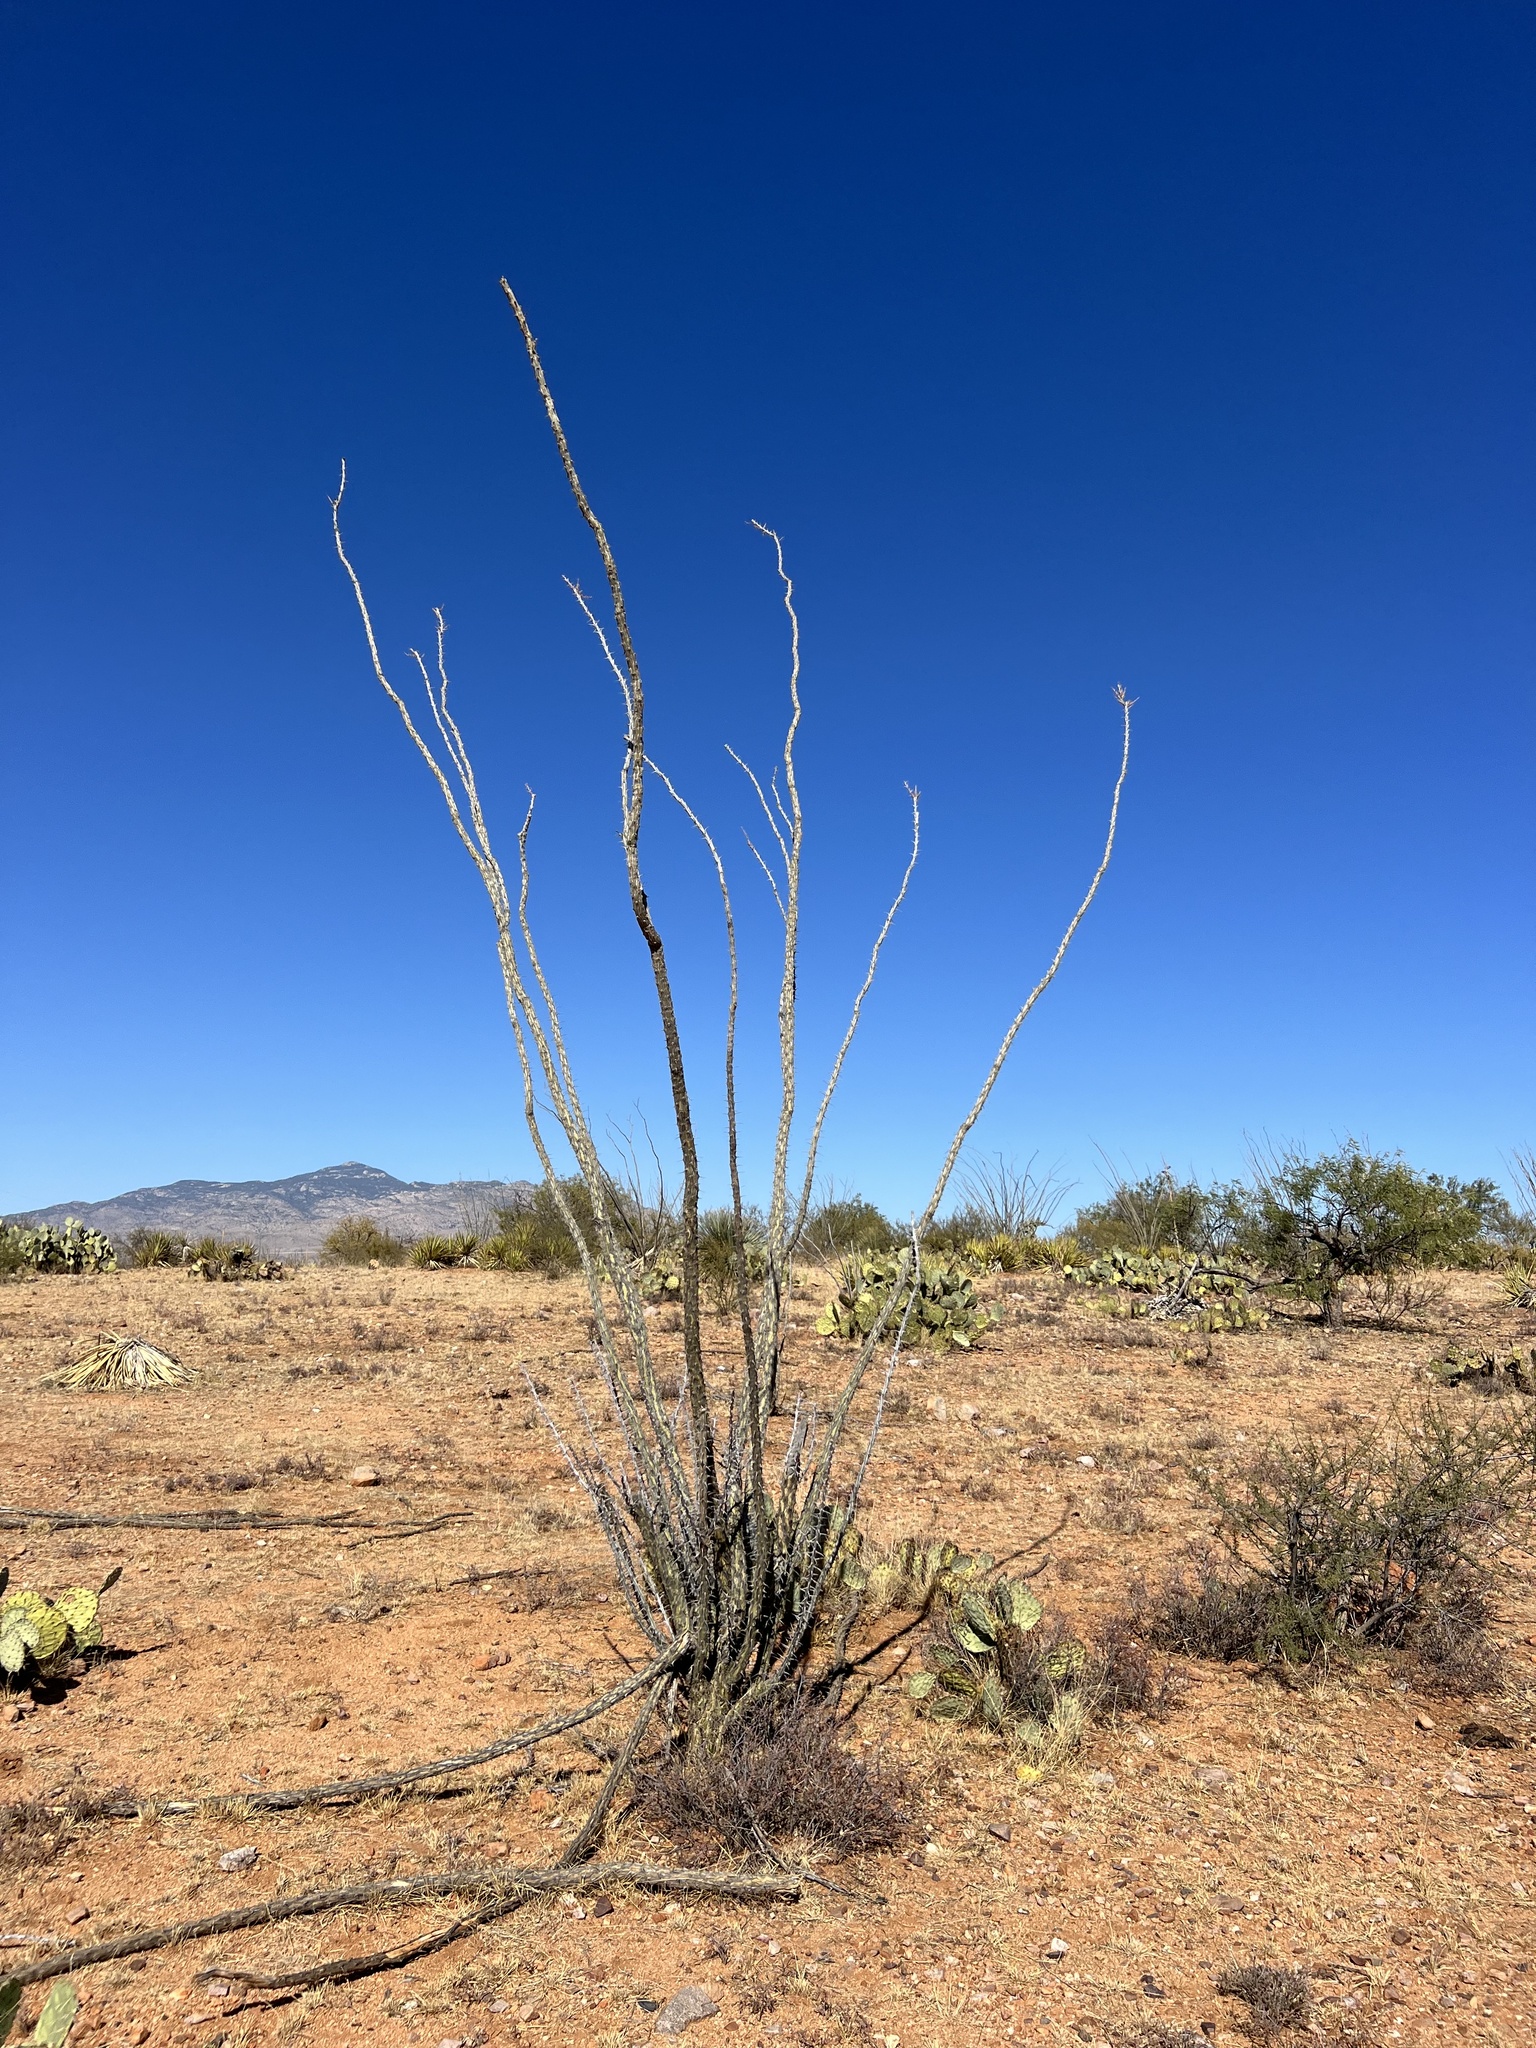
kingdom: Plantae
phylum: Tracheophyta
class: Magnoliopsida
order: Ericales
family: Fouquieriaceae
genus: Fouquieria
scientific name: Fouquieria splendens
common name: Vine-cactus
